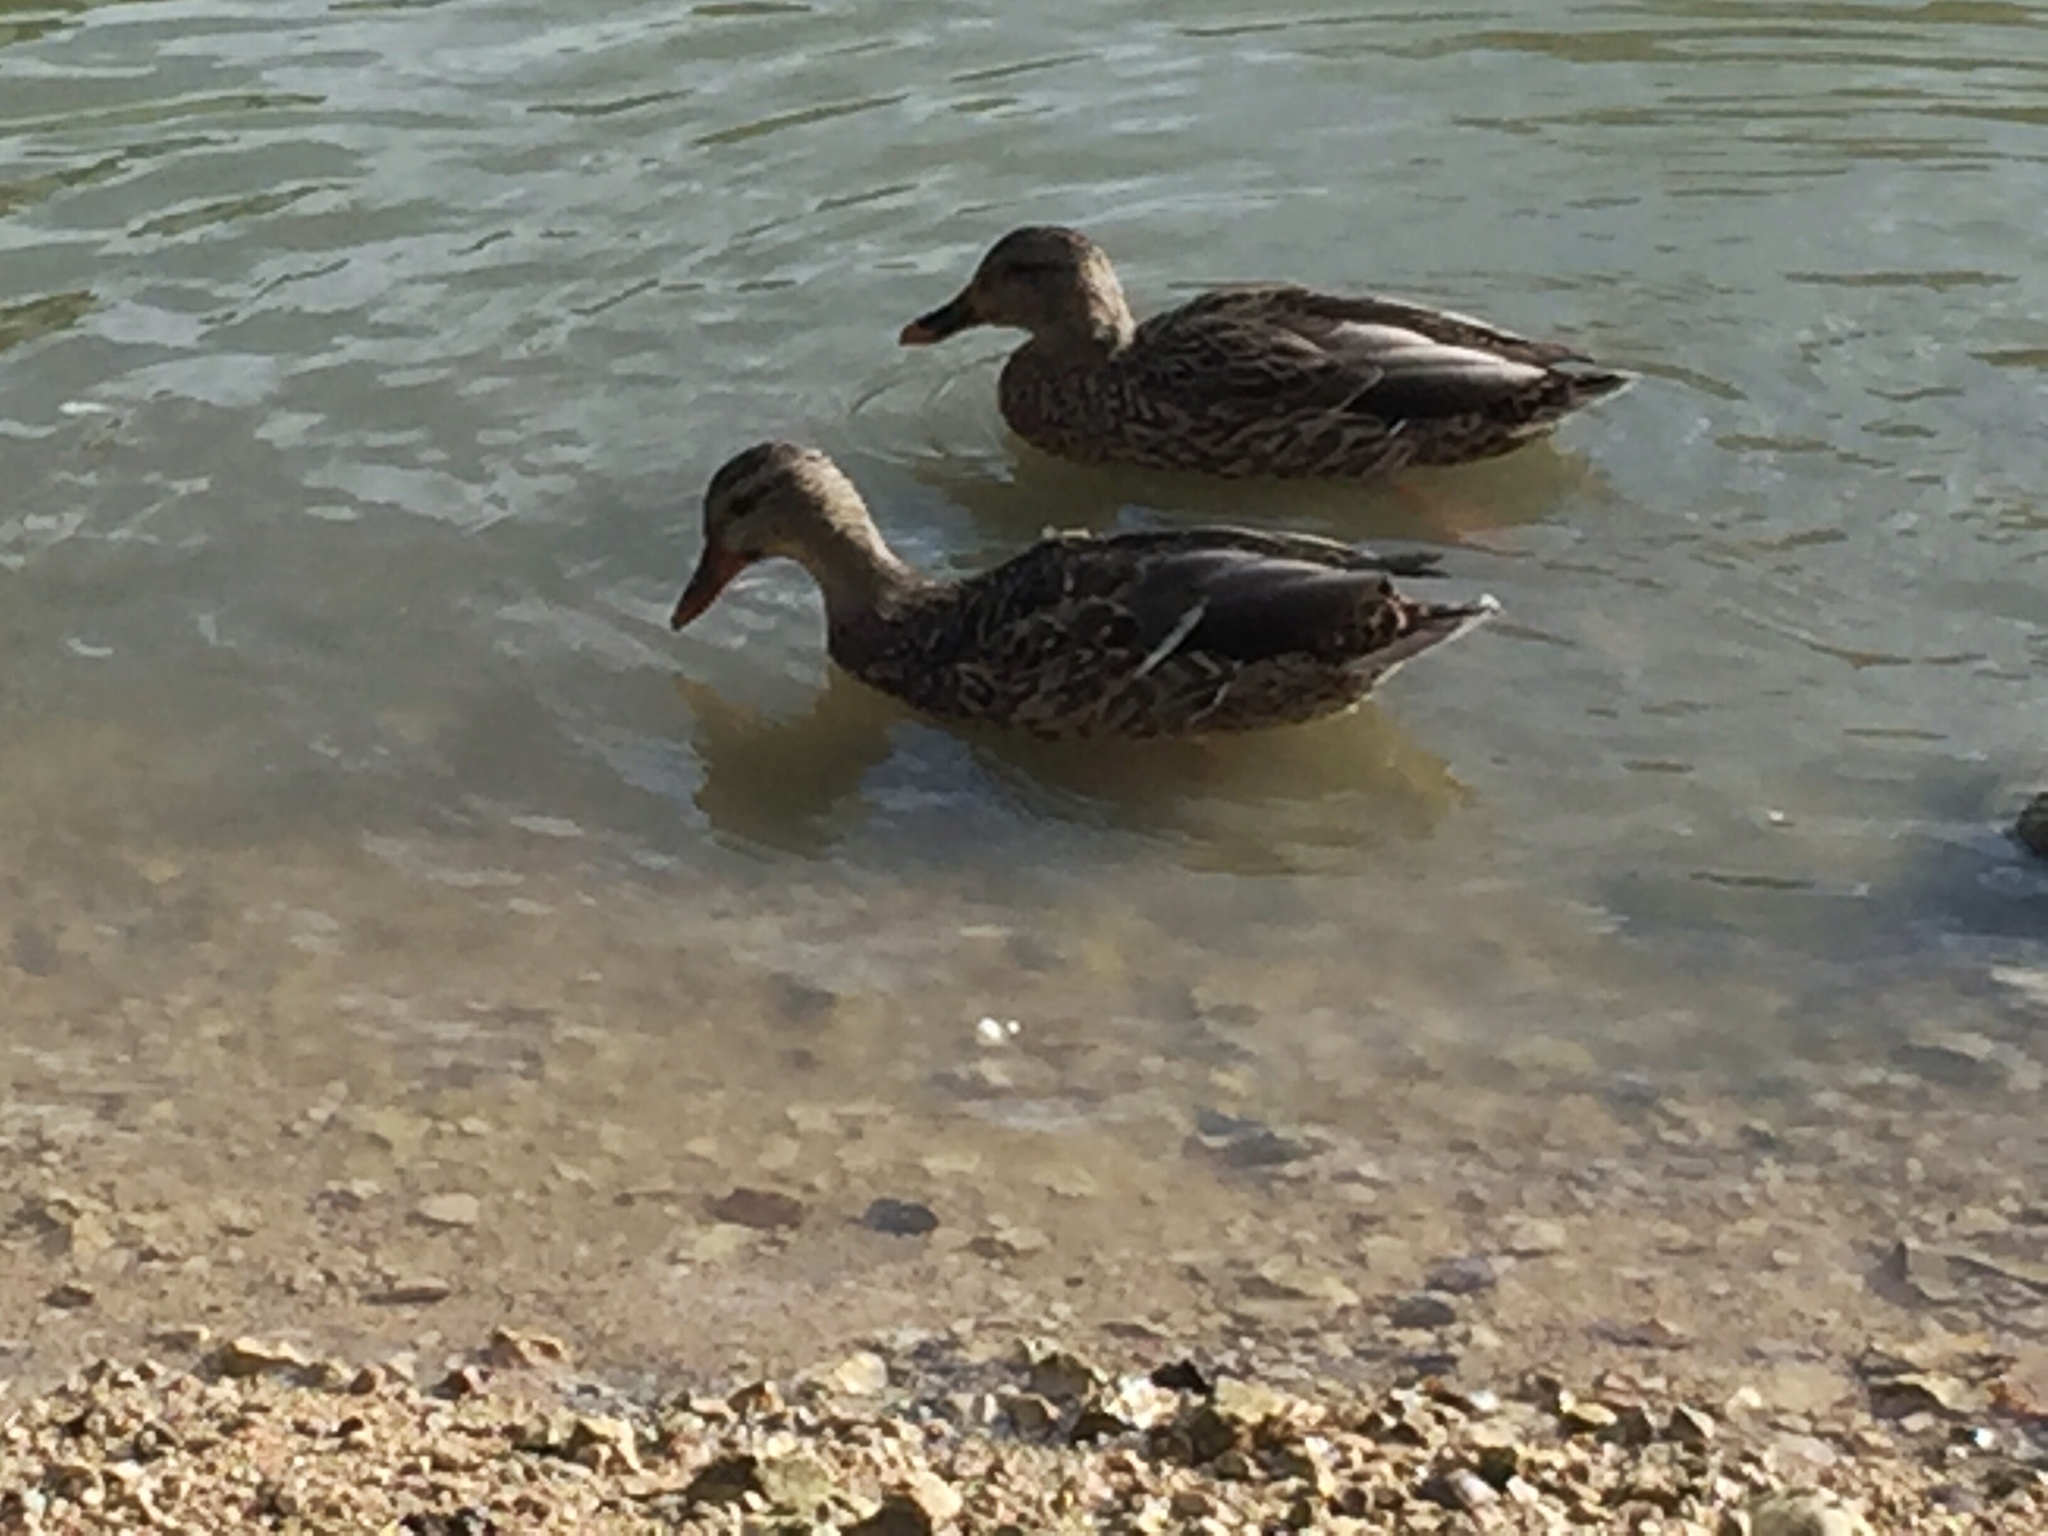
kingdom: Animalia
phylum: Chordata
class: Aves
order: Anseriformes
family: Anatidae
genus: Anas
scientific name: Anas platyrhynchos
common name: Mallard
